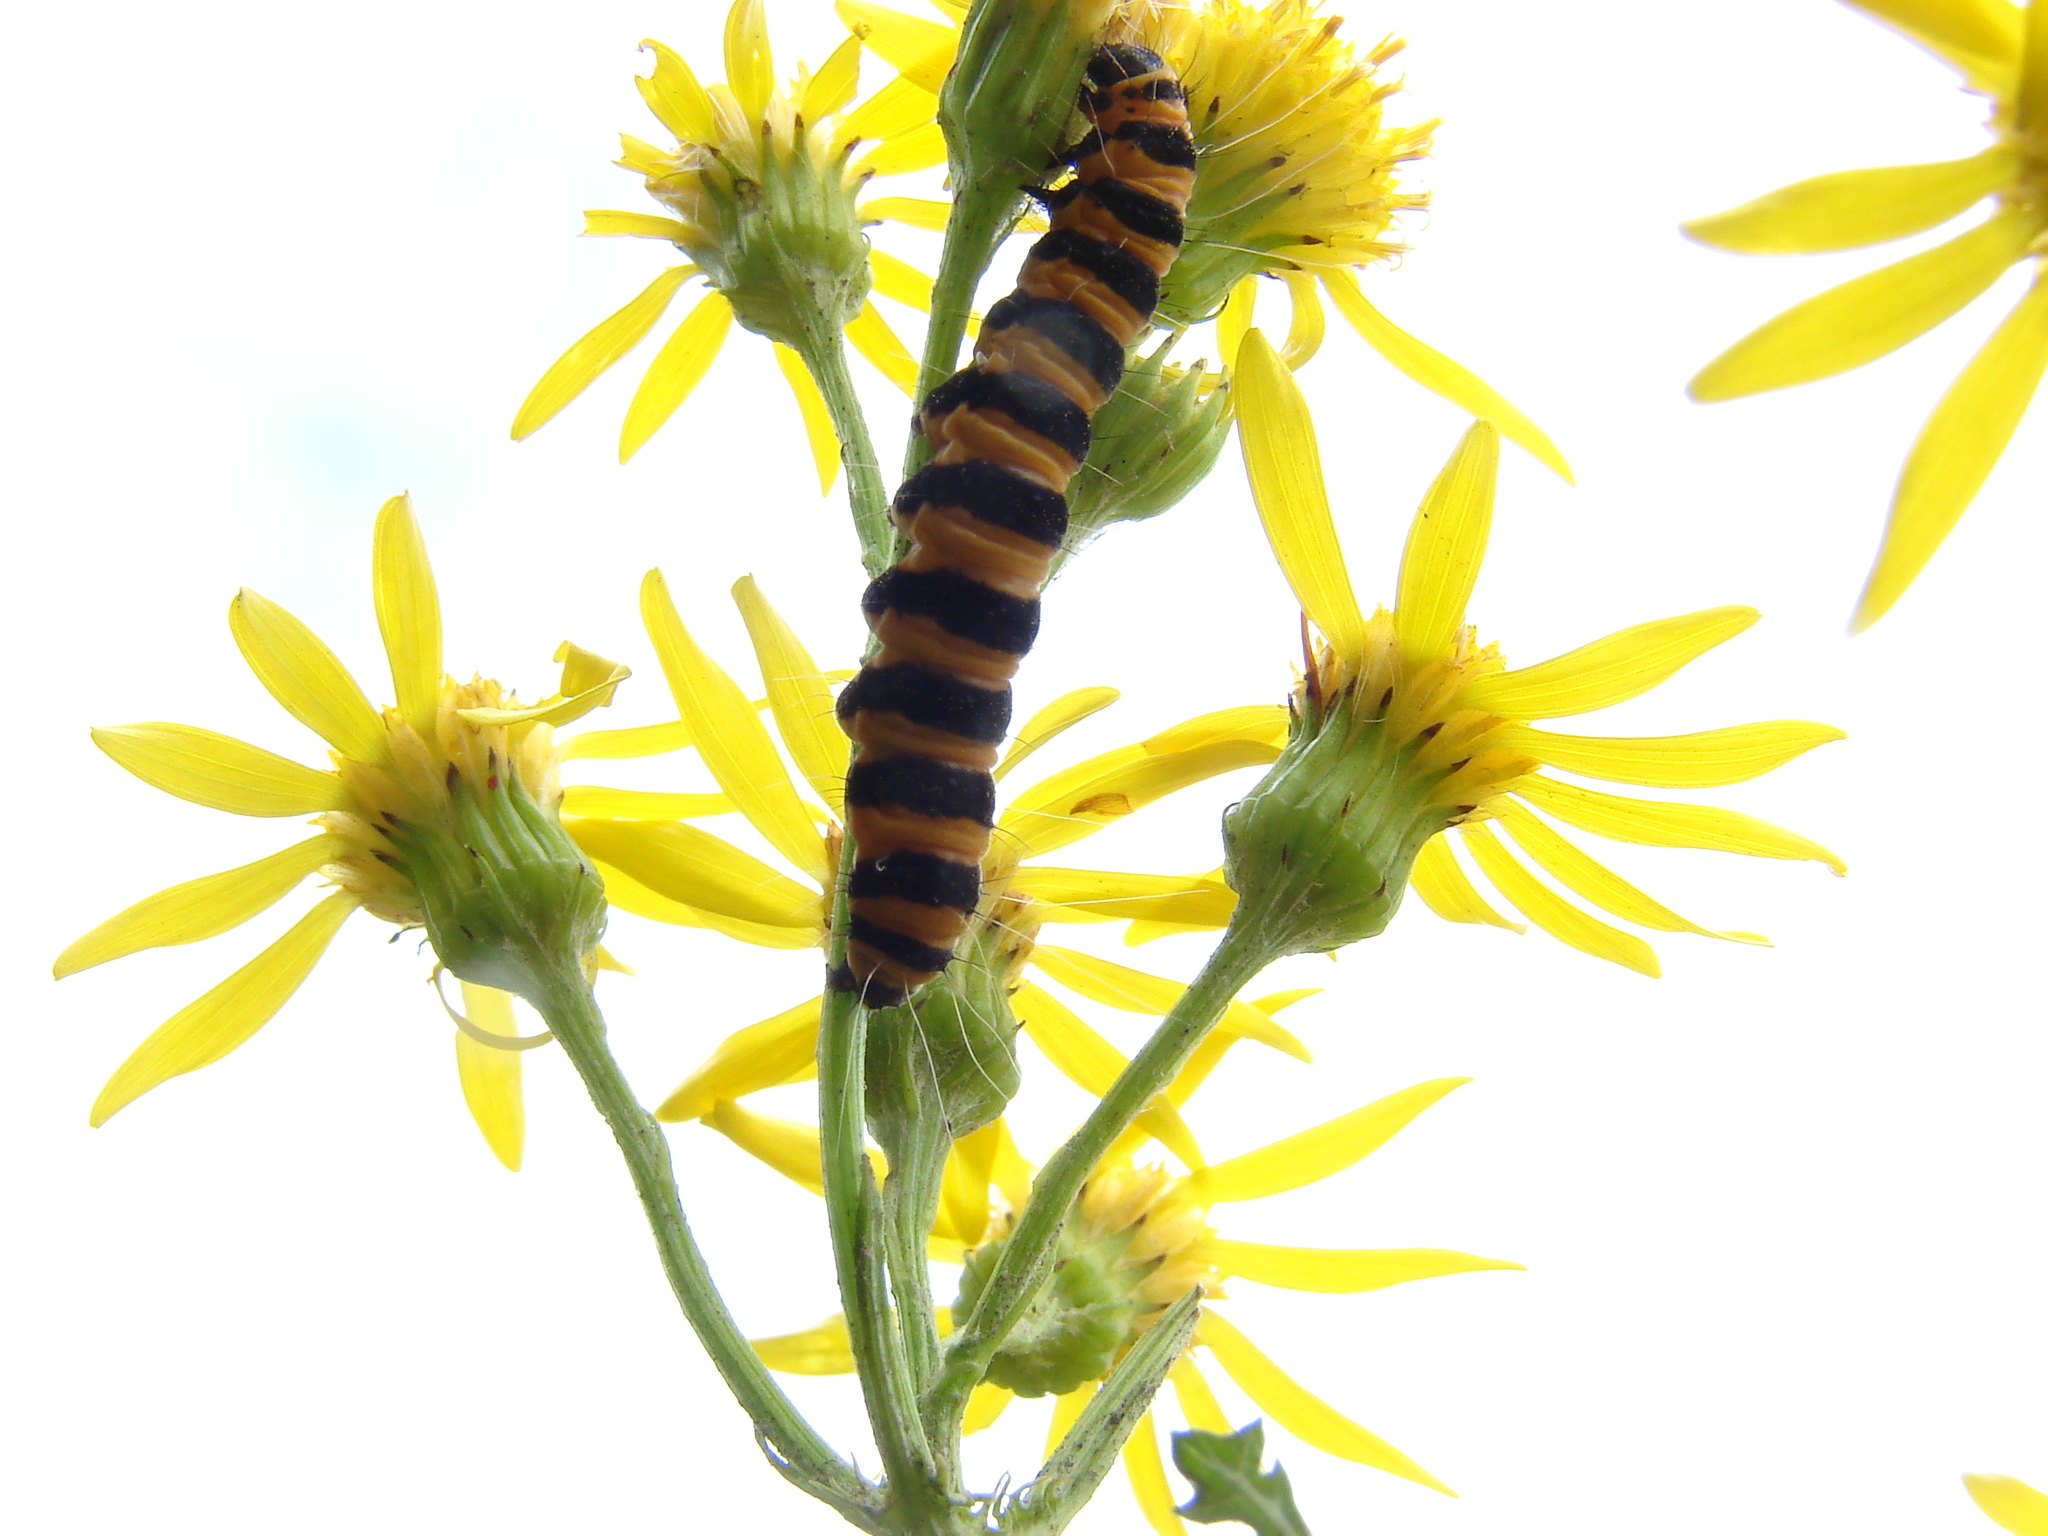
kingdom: Animalia
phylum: Arthropoda
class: Insecta
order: Lepidoptera
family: Erebidae
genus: Tyria
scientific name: Tyria jacobaeae
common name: Cinnabar
